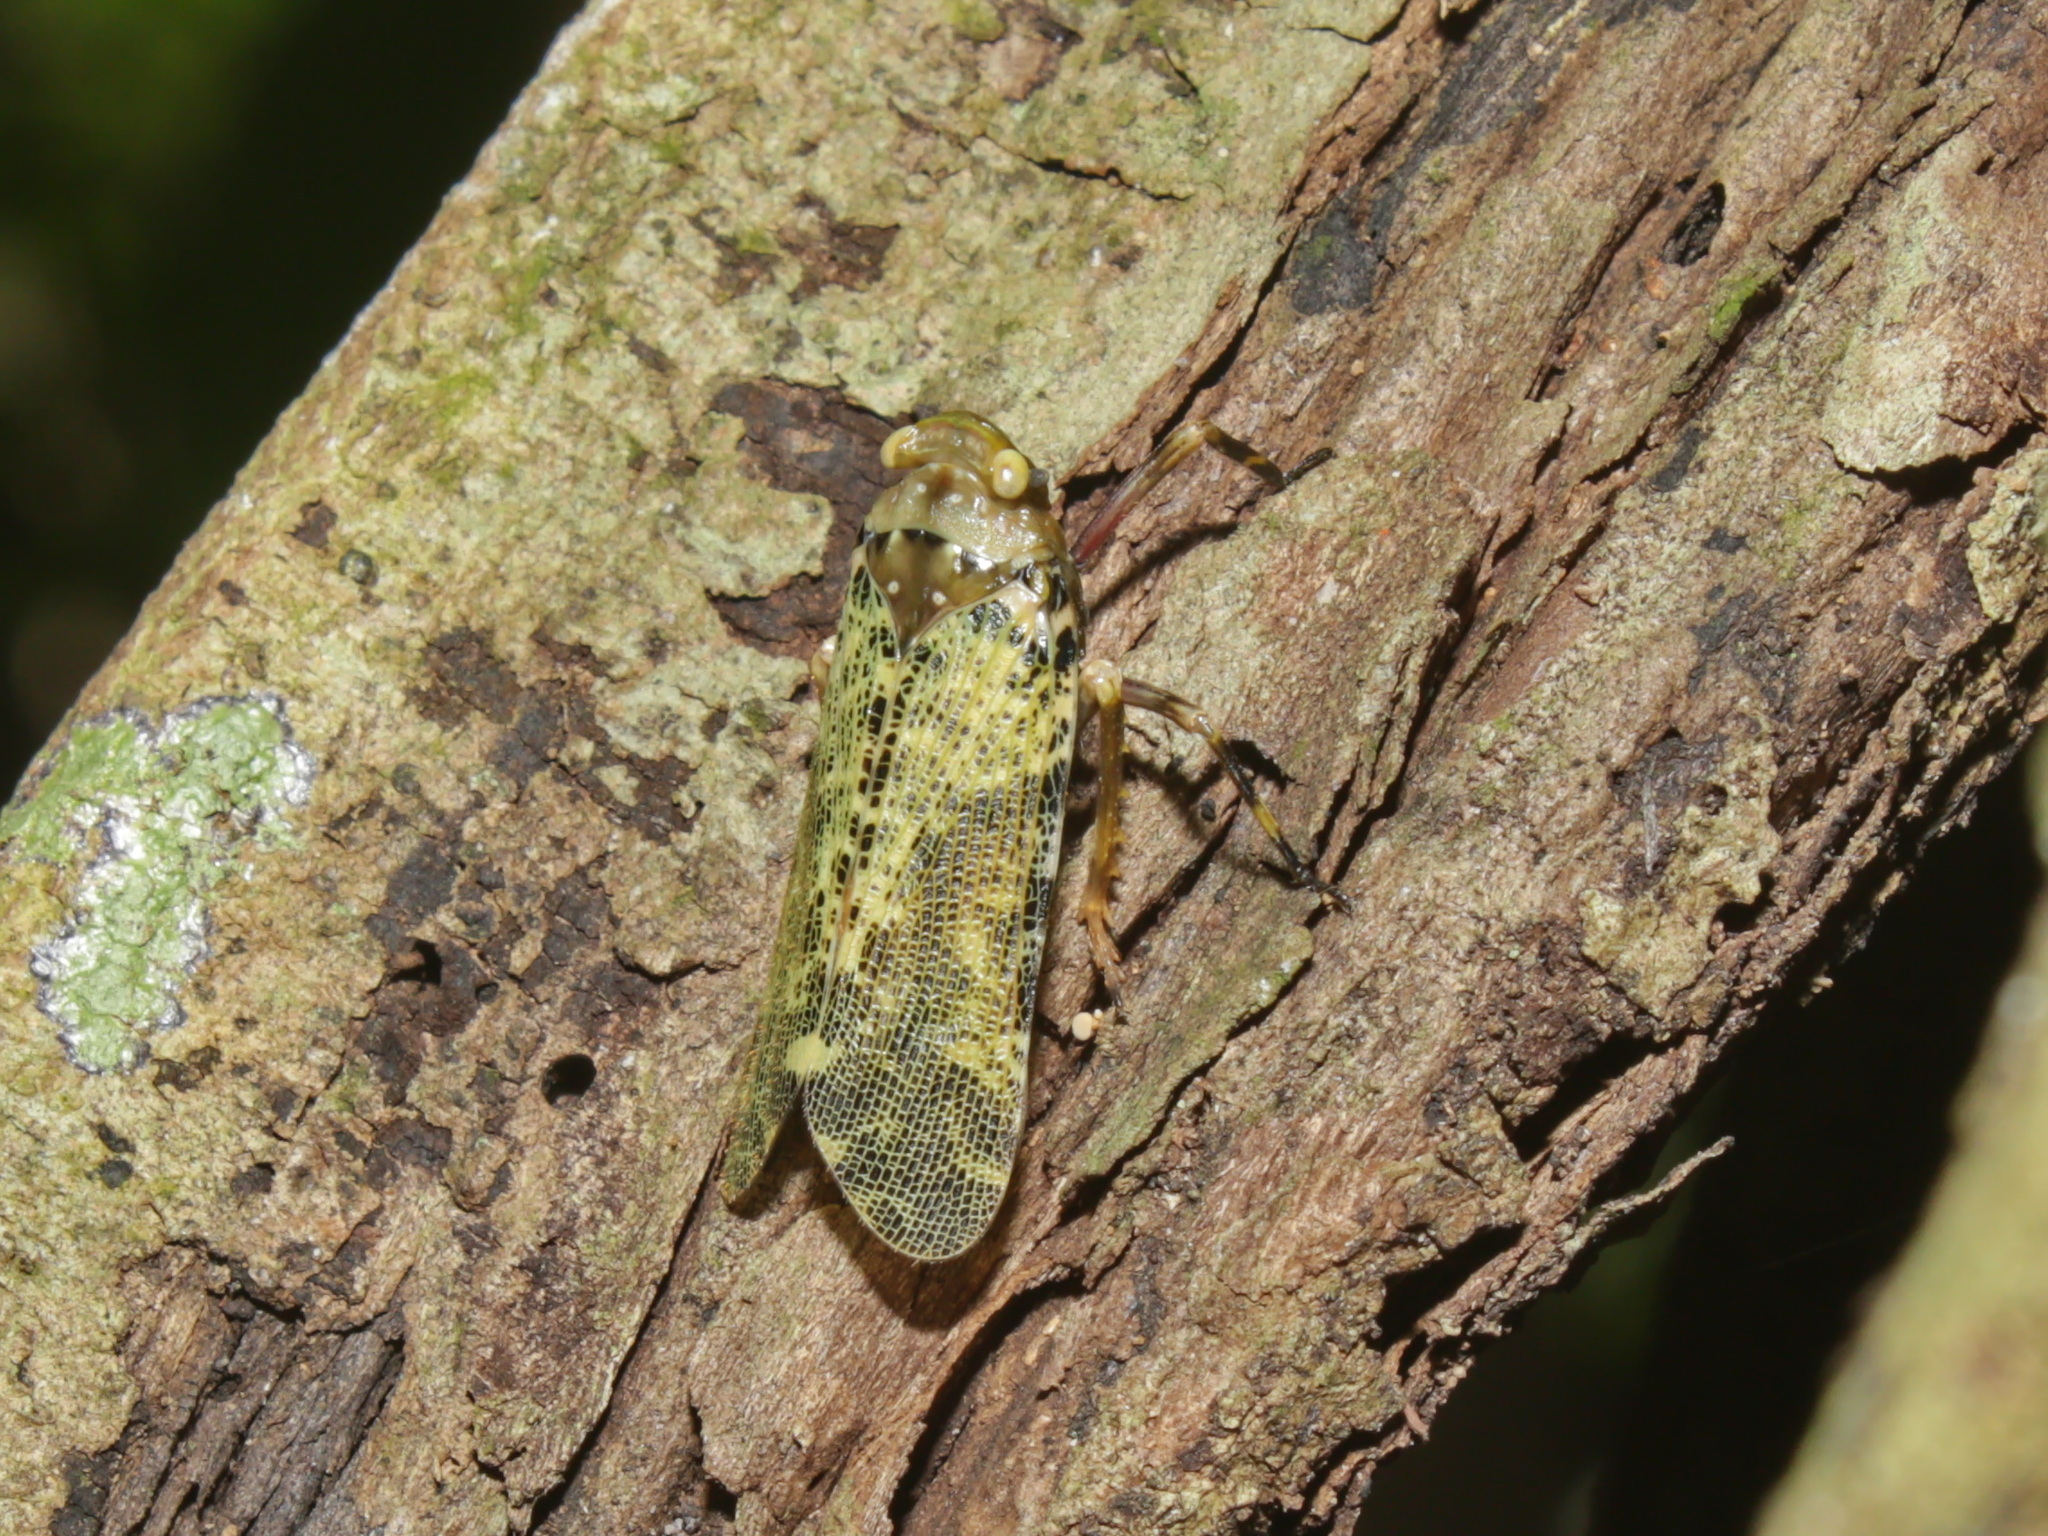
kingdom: Animalia
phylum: Arthropoda
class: Insecta
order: Hemiptera
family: Fulgoridae
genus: Polydictya
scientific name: Polydictya thompsoni
